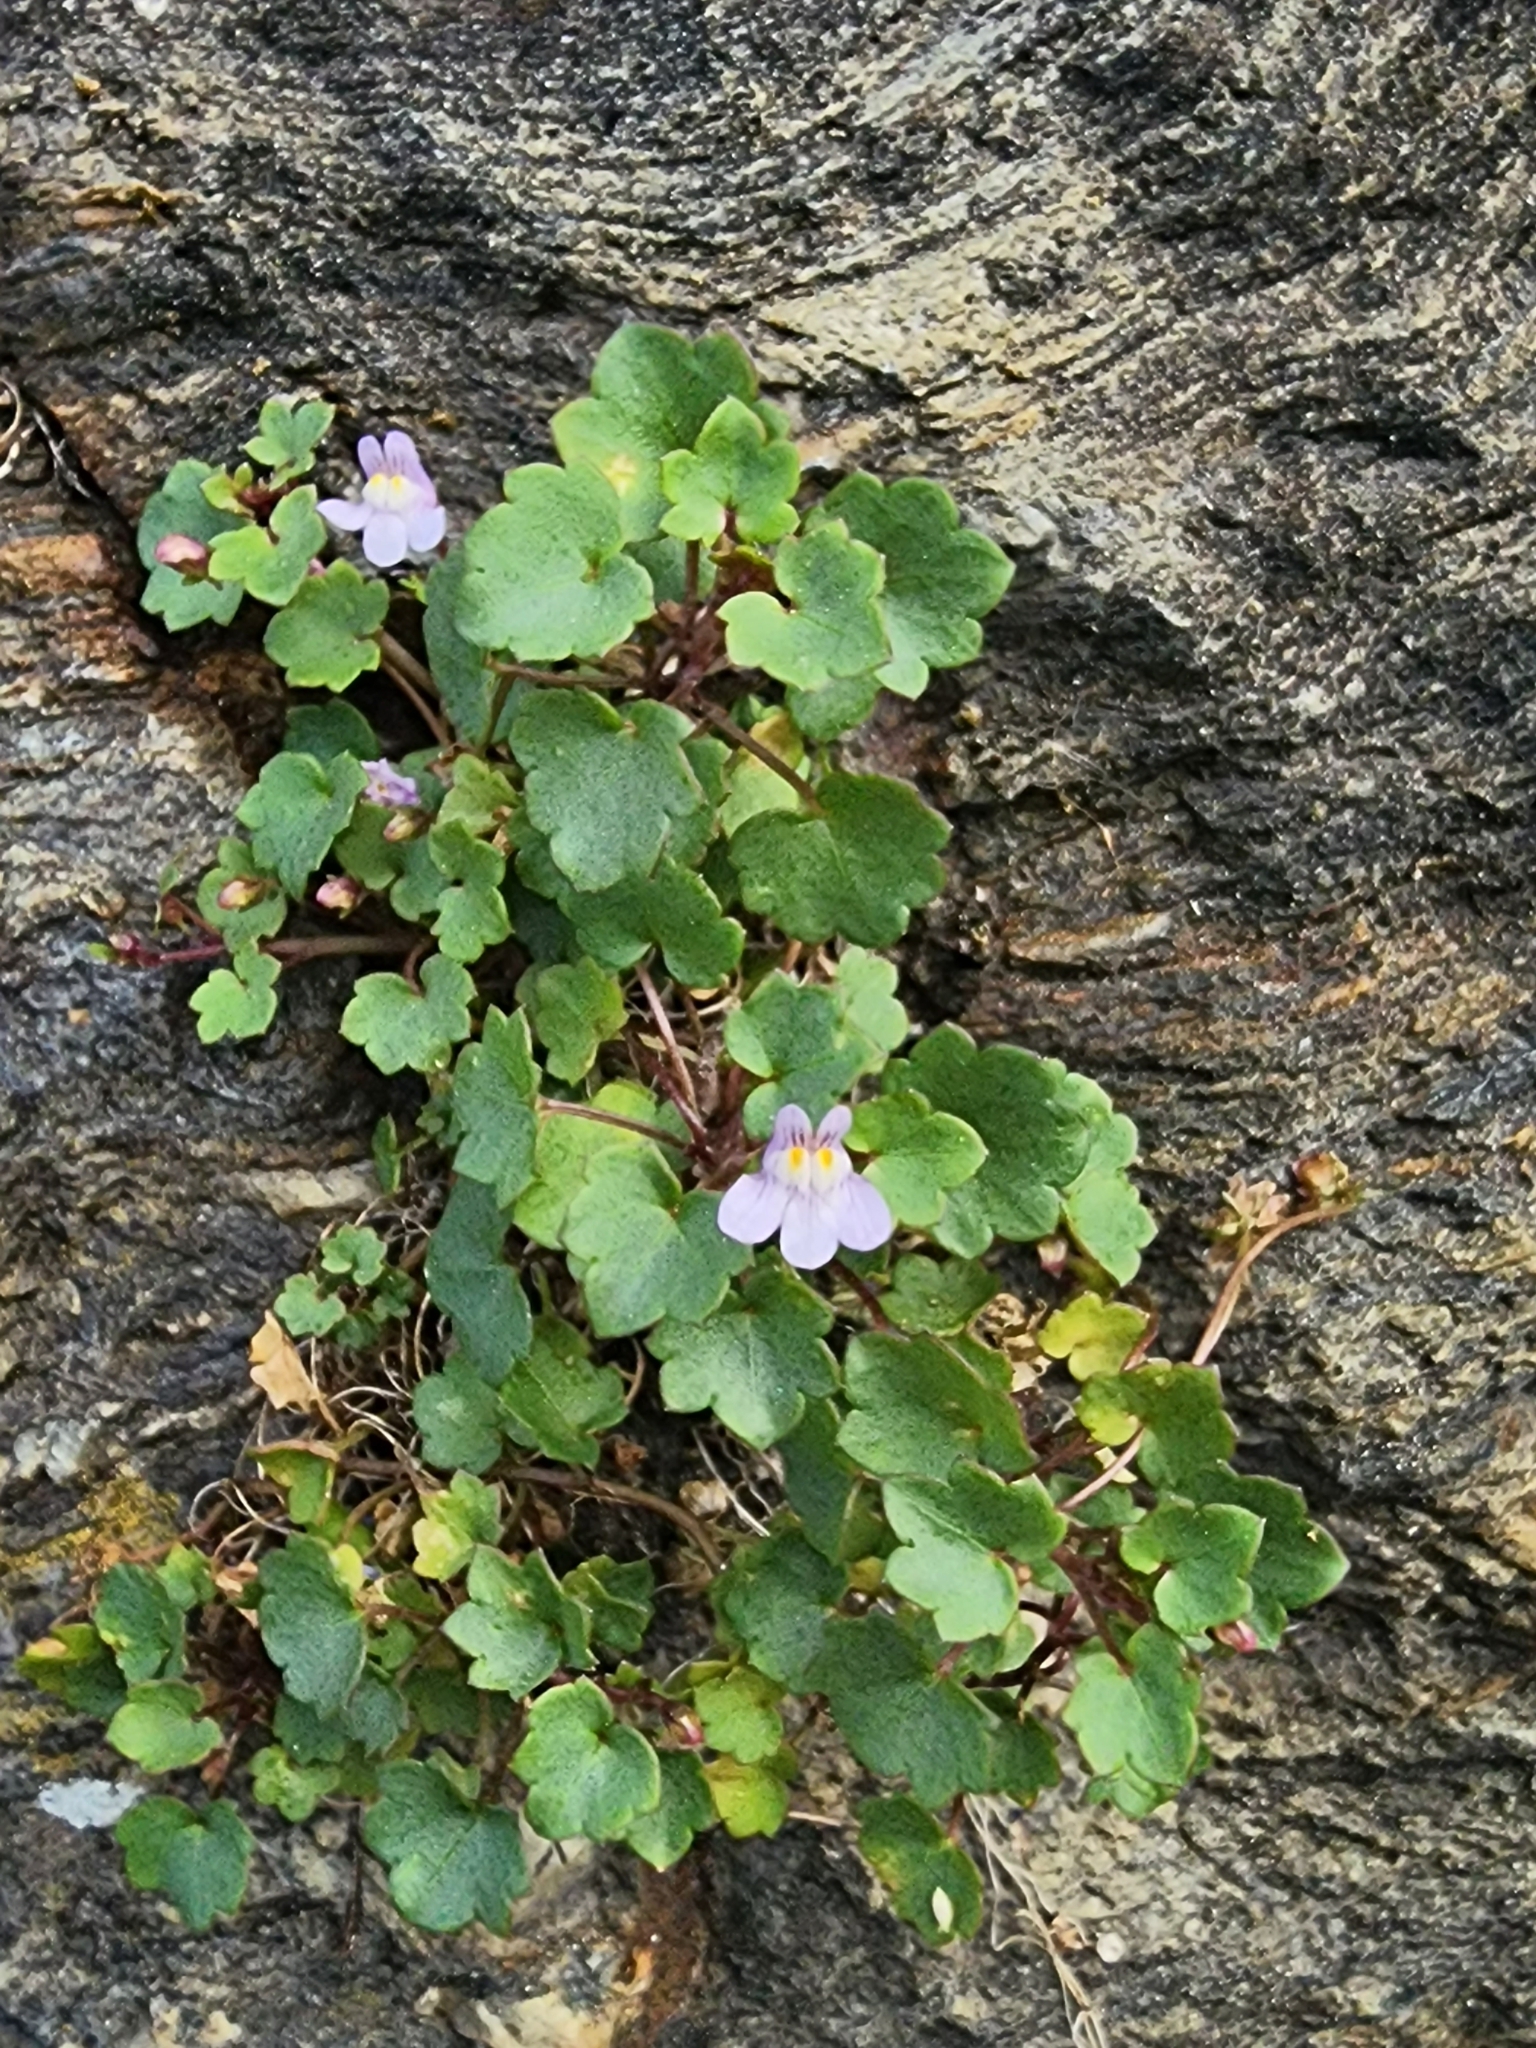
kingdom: Plantae
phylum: Tracheophyta
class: Magnoliopsida
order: Lamiales
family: Plantaginaceae
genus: Cymbalaria
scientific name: Cymbalaria muralis
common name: Ivy-leaved toadflax
